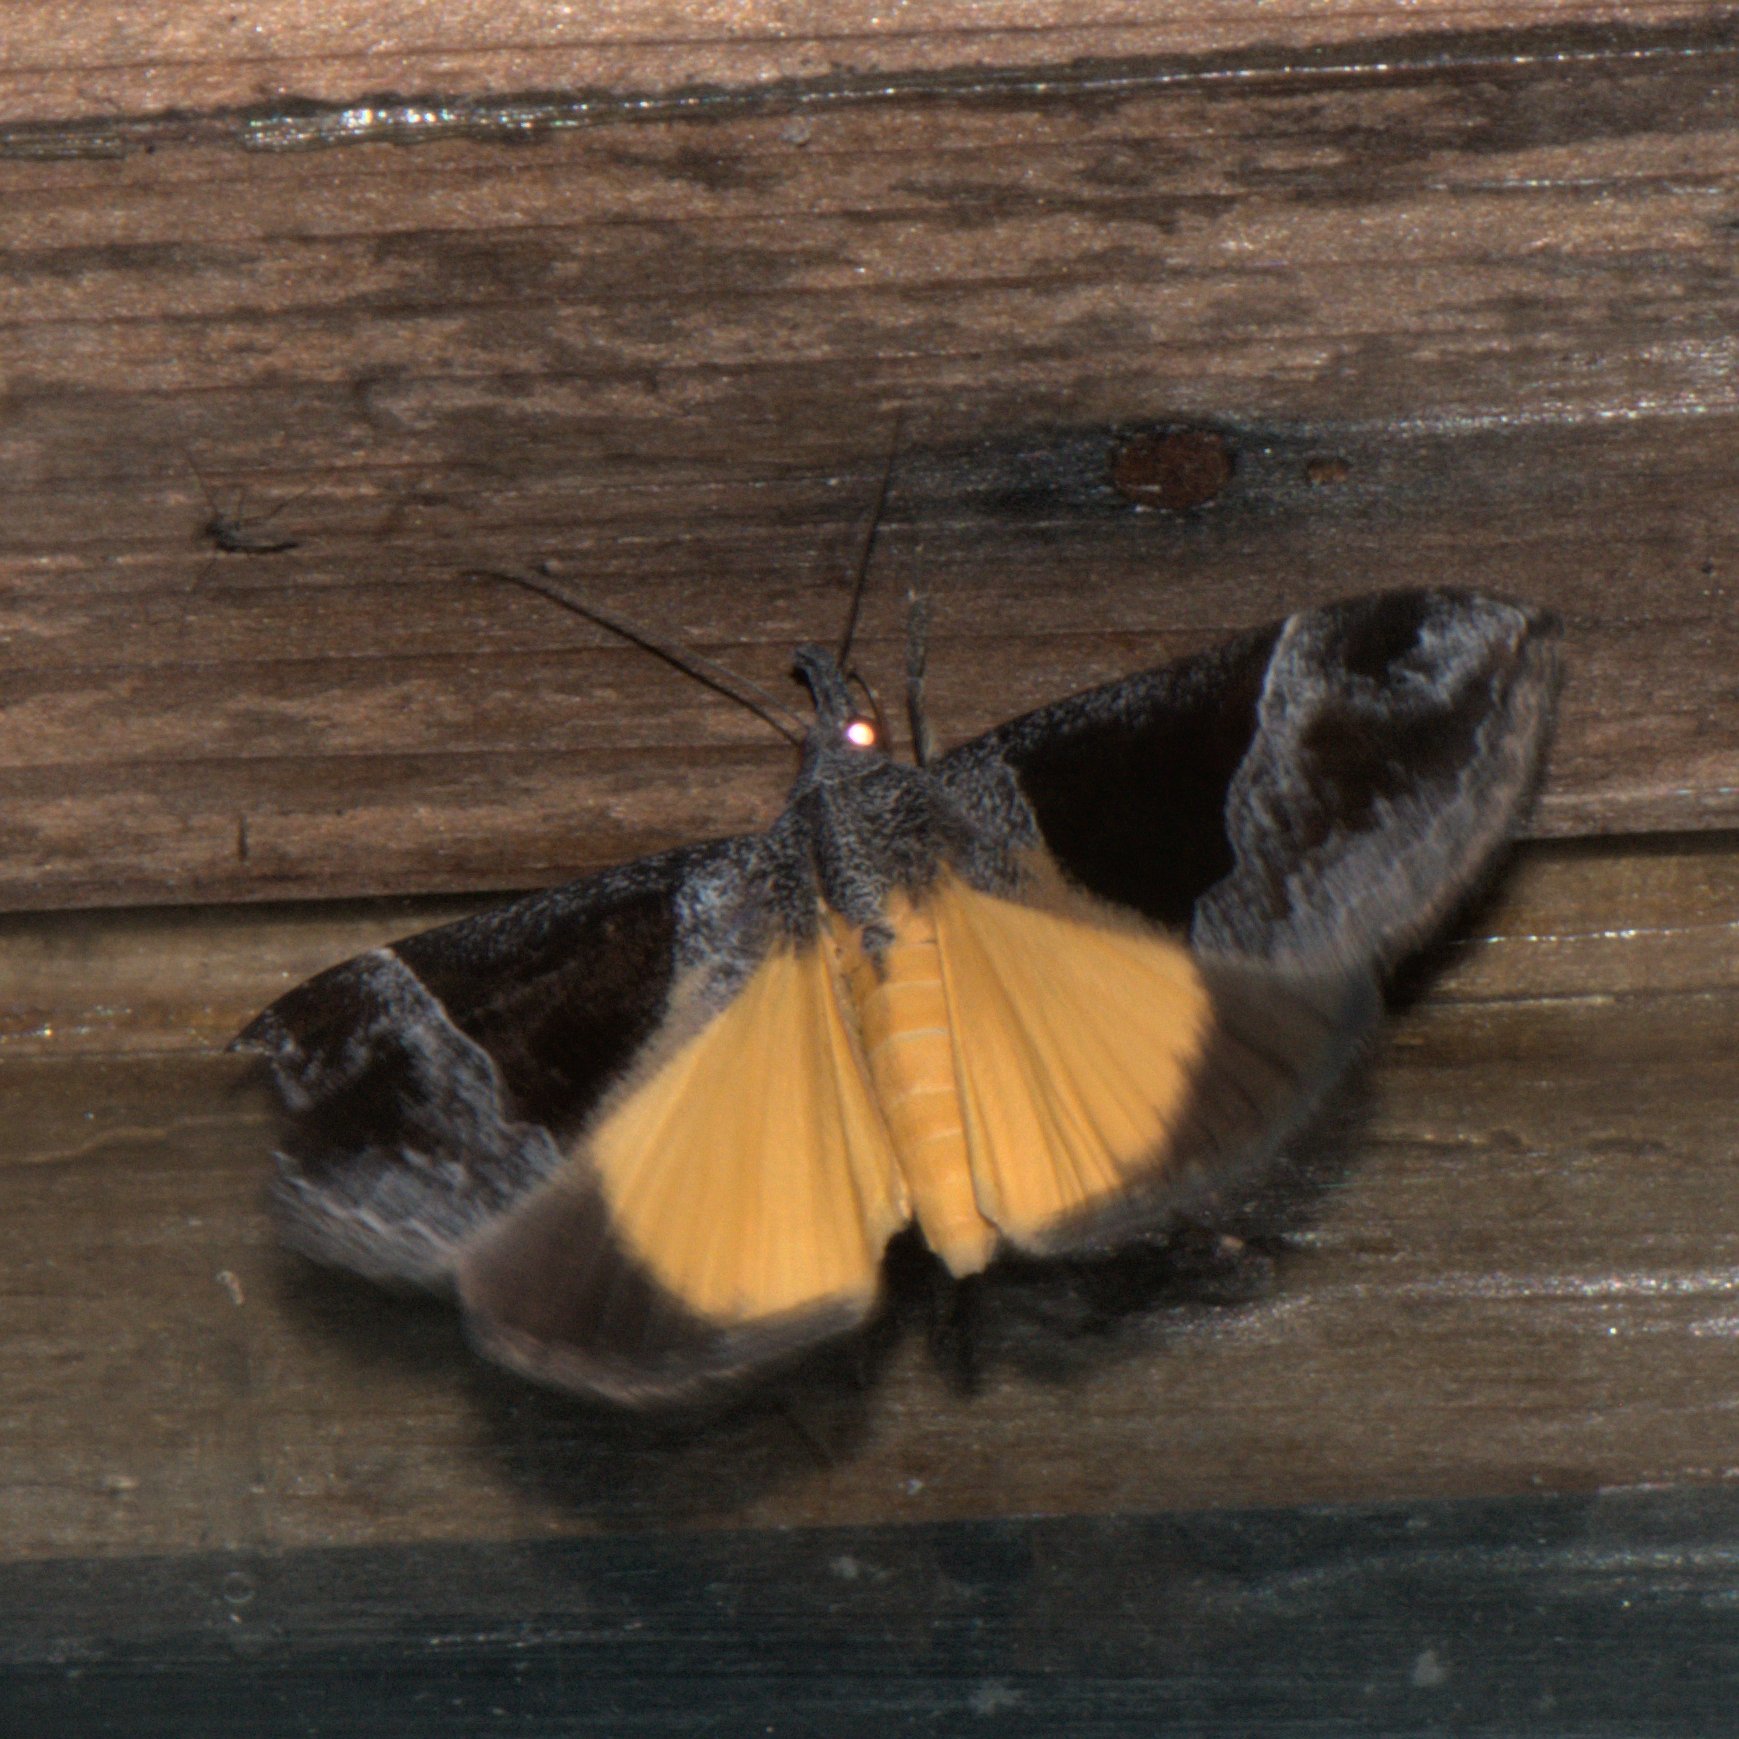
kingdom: Animalia
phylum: Arthropoda
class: Insecta
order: Lepidoptera
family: Erebidae
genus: Hypena
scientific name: Hypena amica
